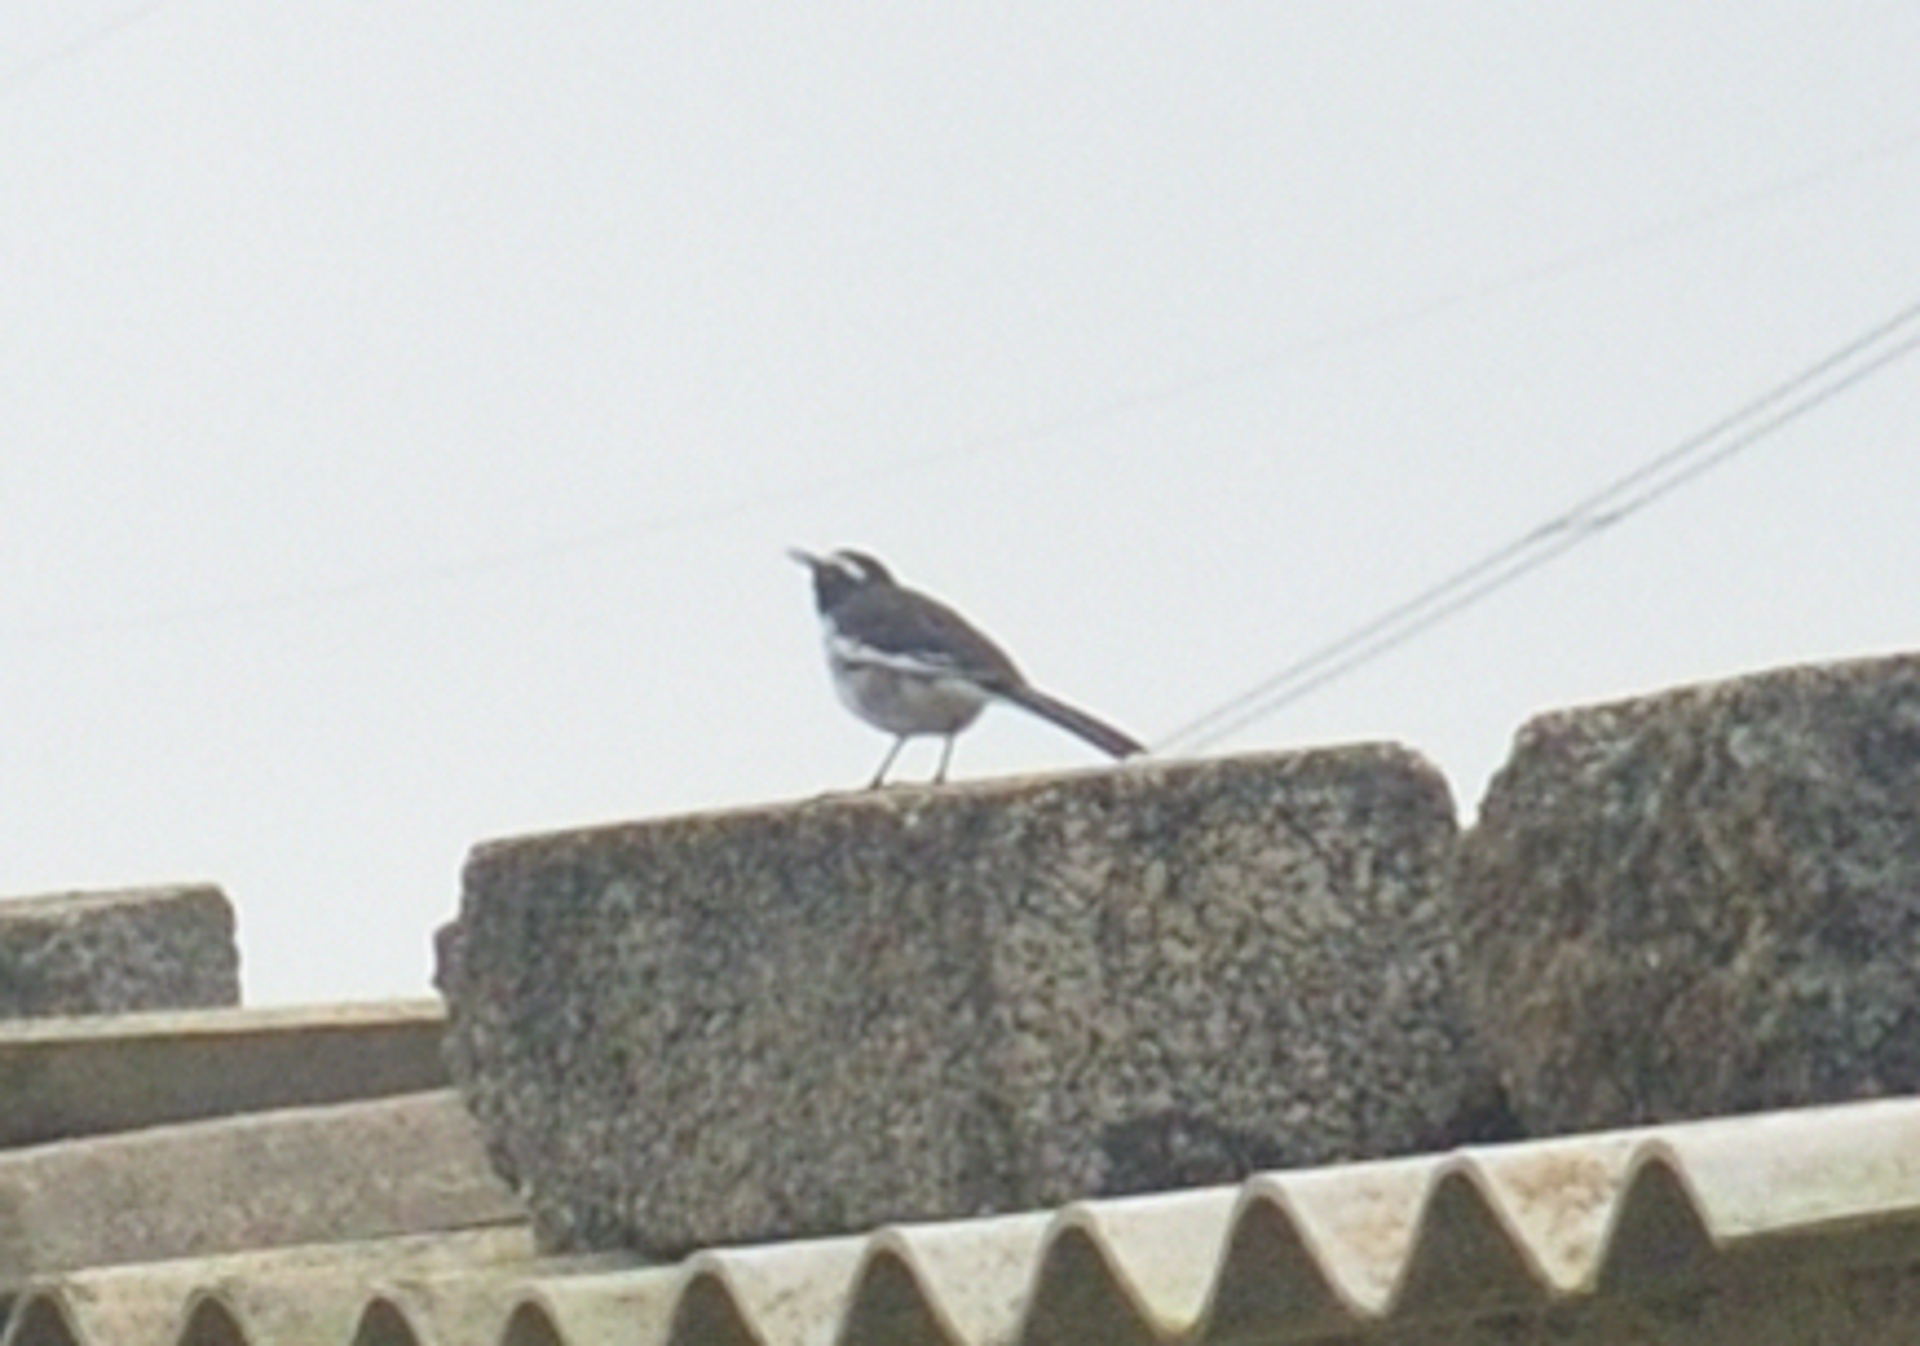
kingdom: Animalia
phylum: Chordata
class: Aves
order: Passeriformes
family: Motacillidae
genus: Motacilla
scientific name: Motacilla maderaspatensis
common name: White-browed wagtail
